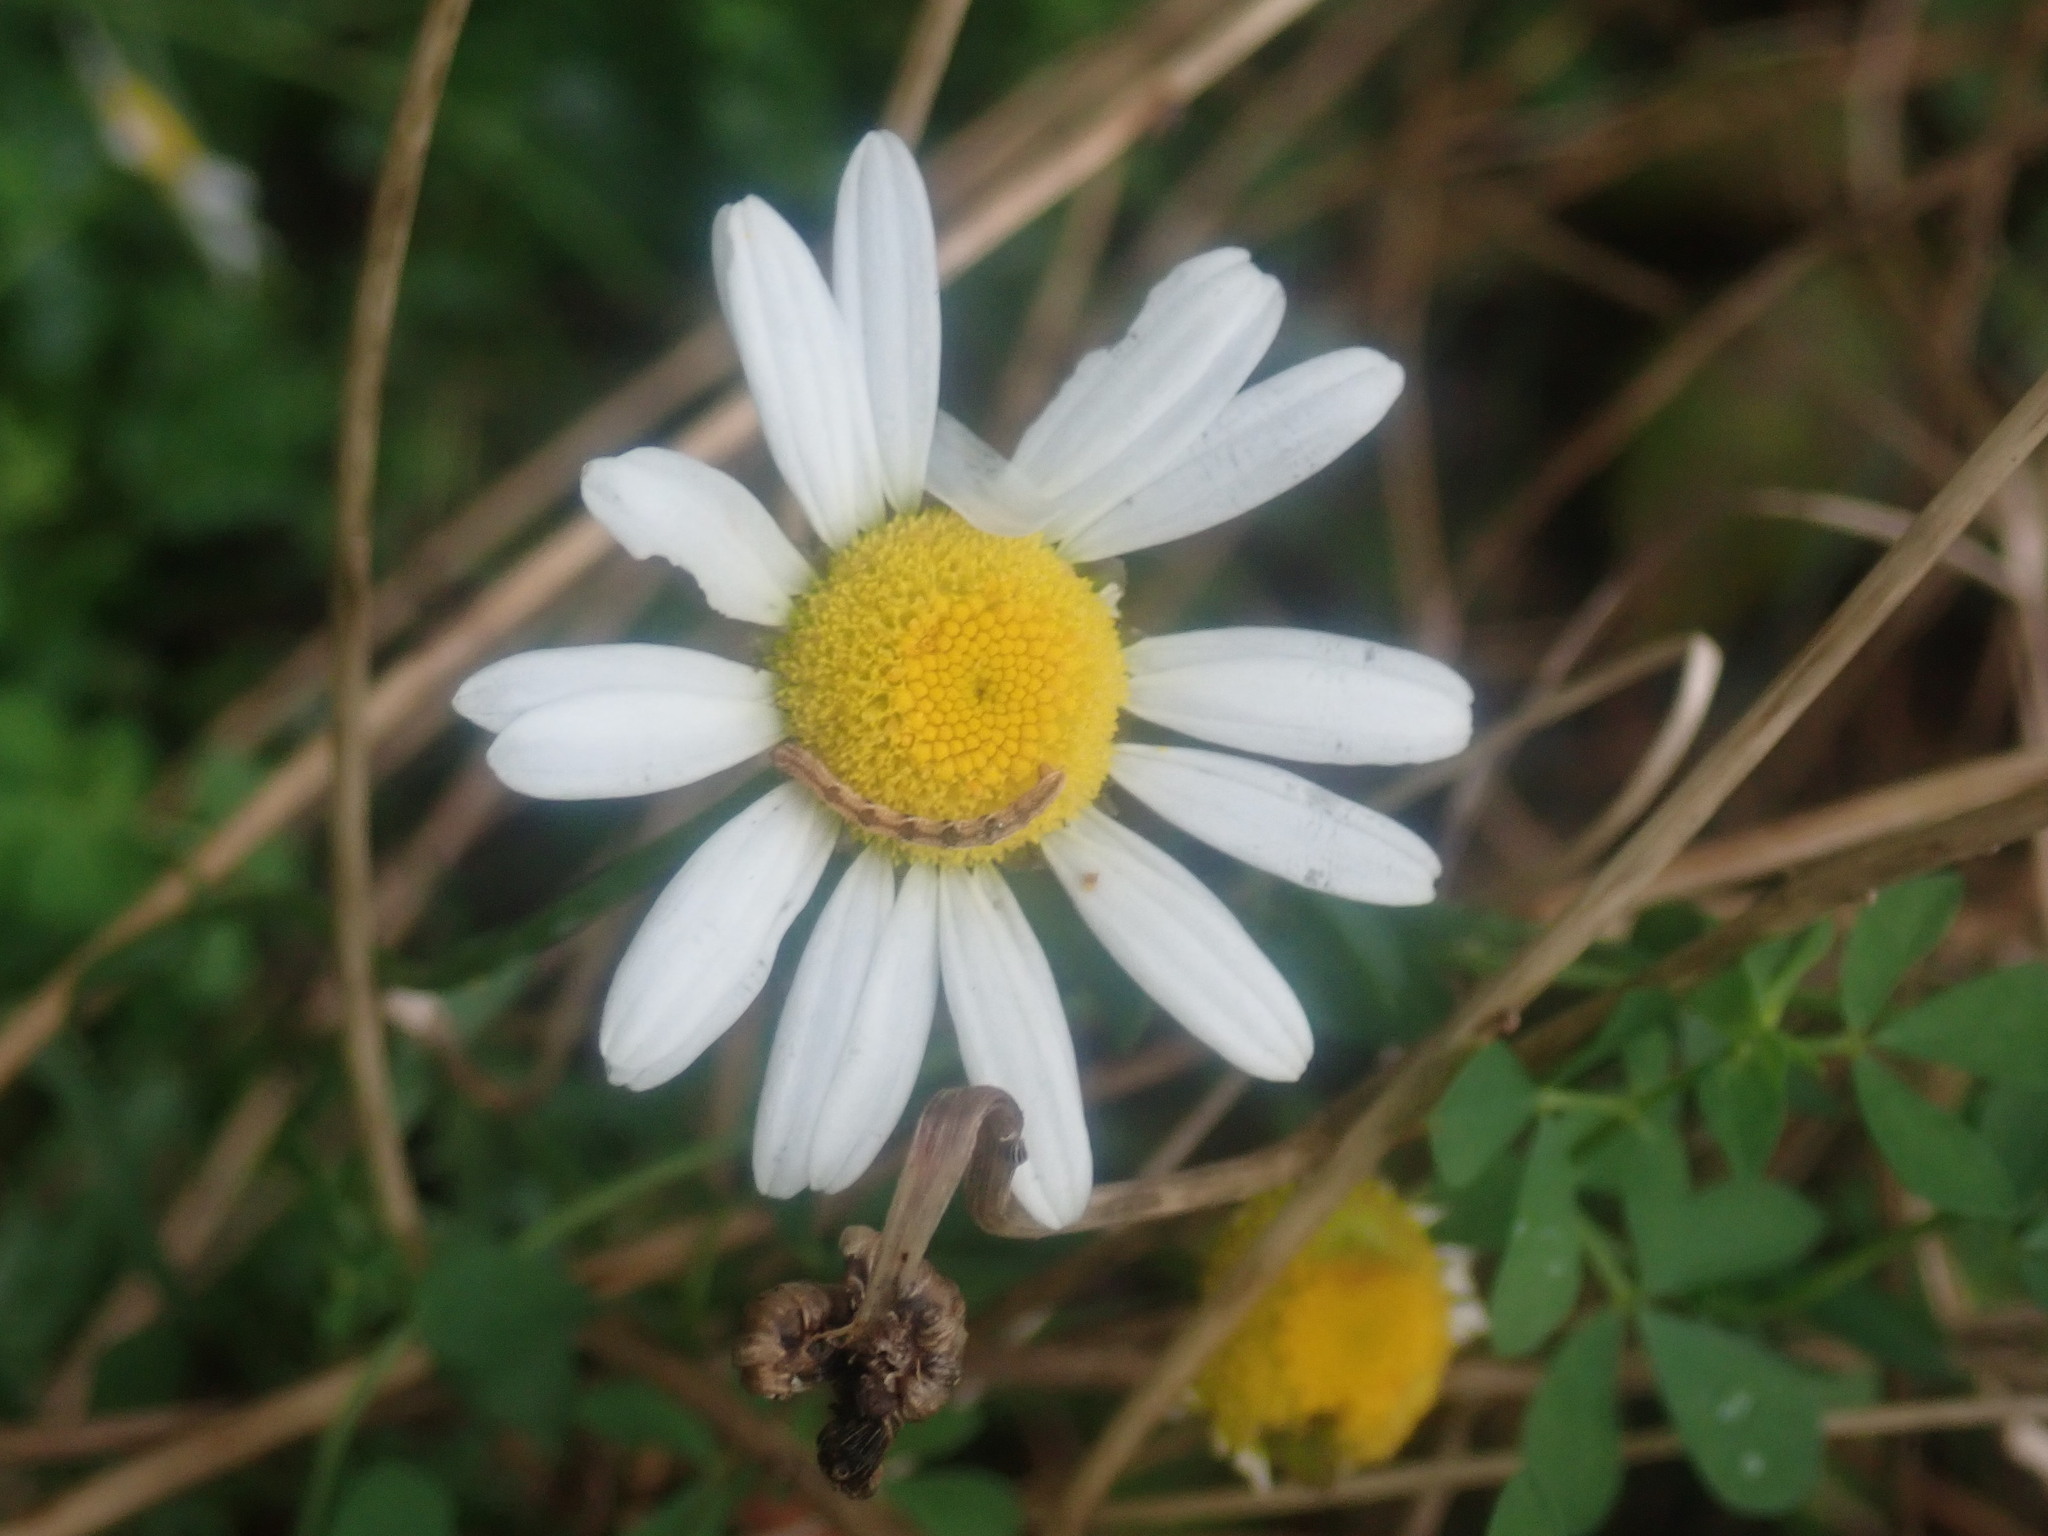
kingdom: Plantae
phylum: Tracheophyta
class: Magnoliopsida
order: Asterales
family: Asteraceae
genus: Leucanthemum
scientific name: Leucanthemum vulgare
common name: Oxeye daisy
